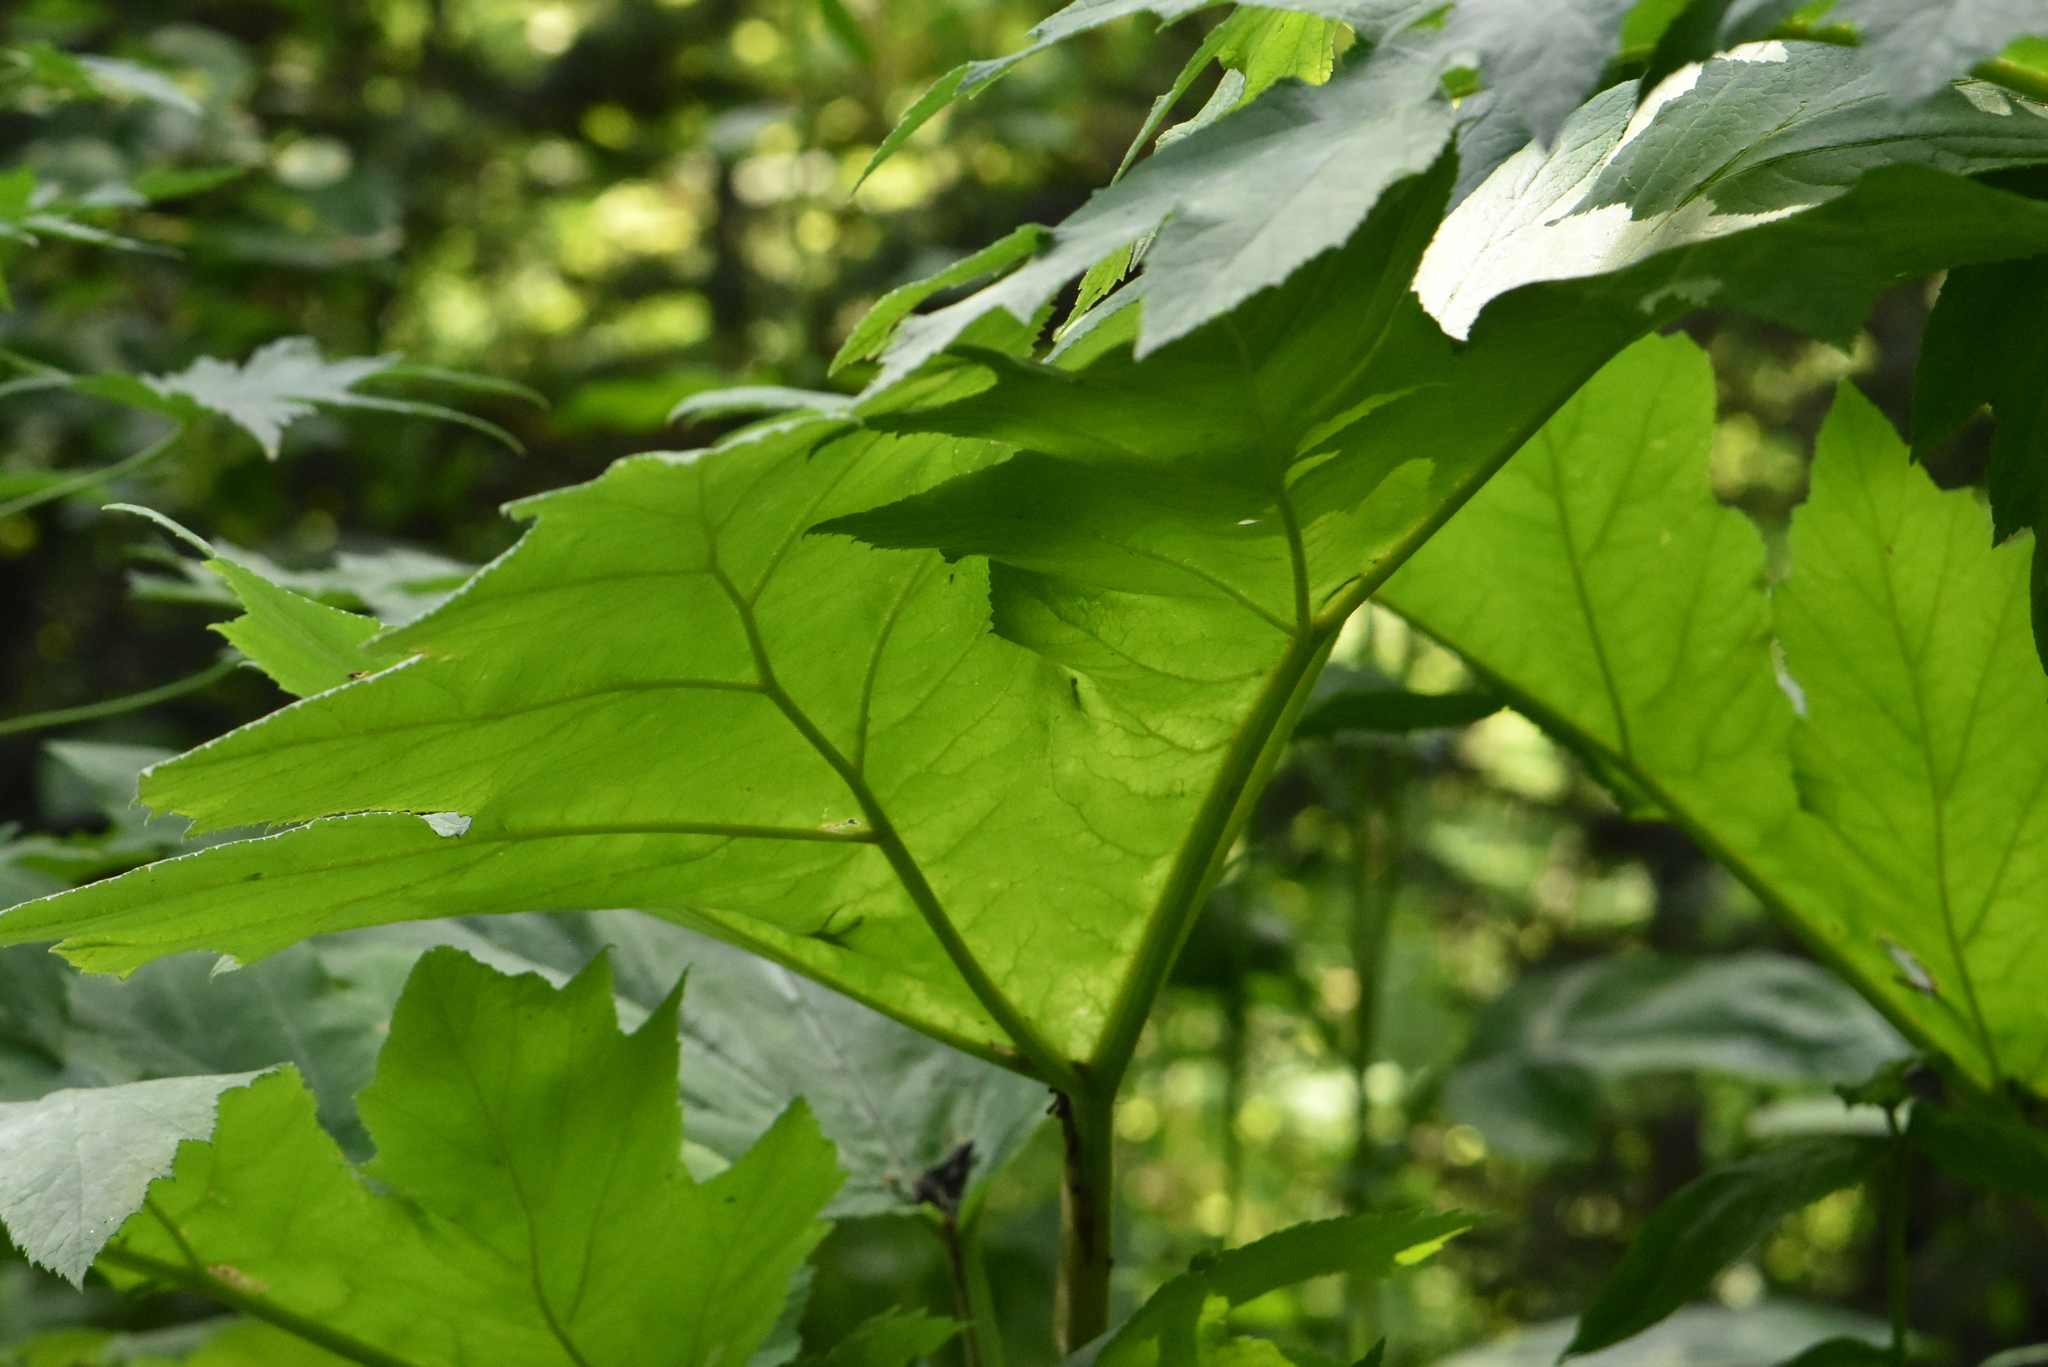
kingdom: Plantae
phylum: Tracheophyta
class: Magnoliopsida
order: Apiales
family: Apiaceae
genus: Heracleum
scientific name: Heracleum dissectum
